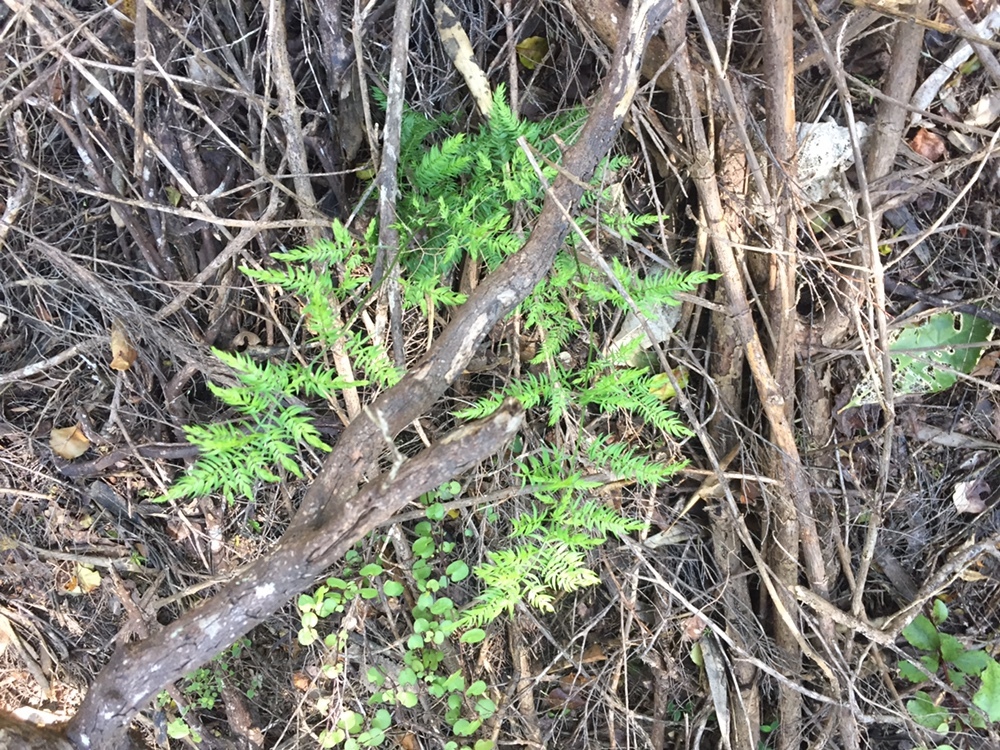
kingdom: Plantae
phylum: Tracheophyta
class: Liliopsida
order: Asparagales
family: Asparagaceae
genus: Asparagus
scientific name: Asparagus scandens
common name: Asparagus-fern
